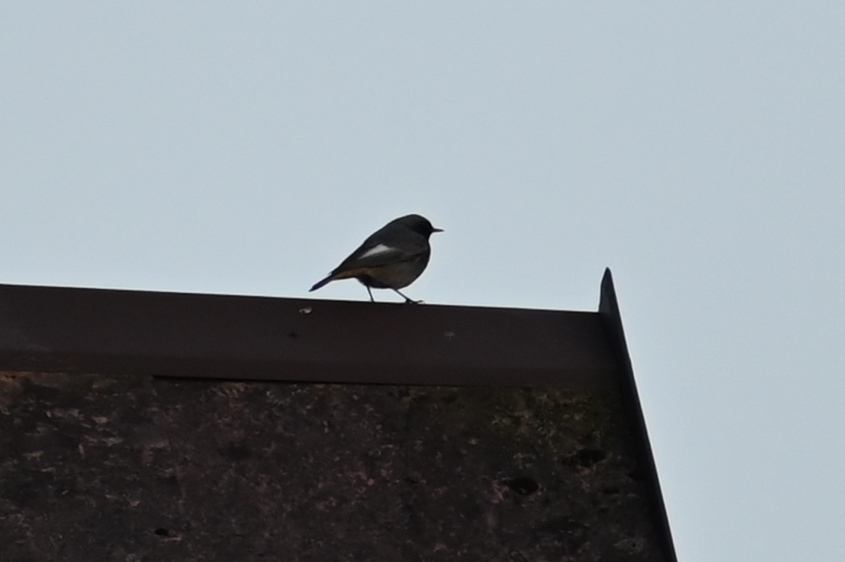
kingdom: Animalia
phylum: Chordata
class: Aves
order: Passeriformes
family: Muscicapidae
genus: Phoenicurus
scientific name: Phoenicurus ochruros
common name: Black redstart
